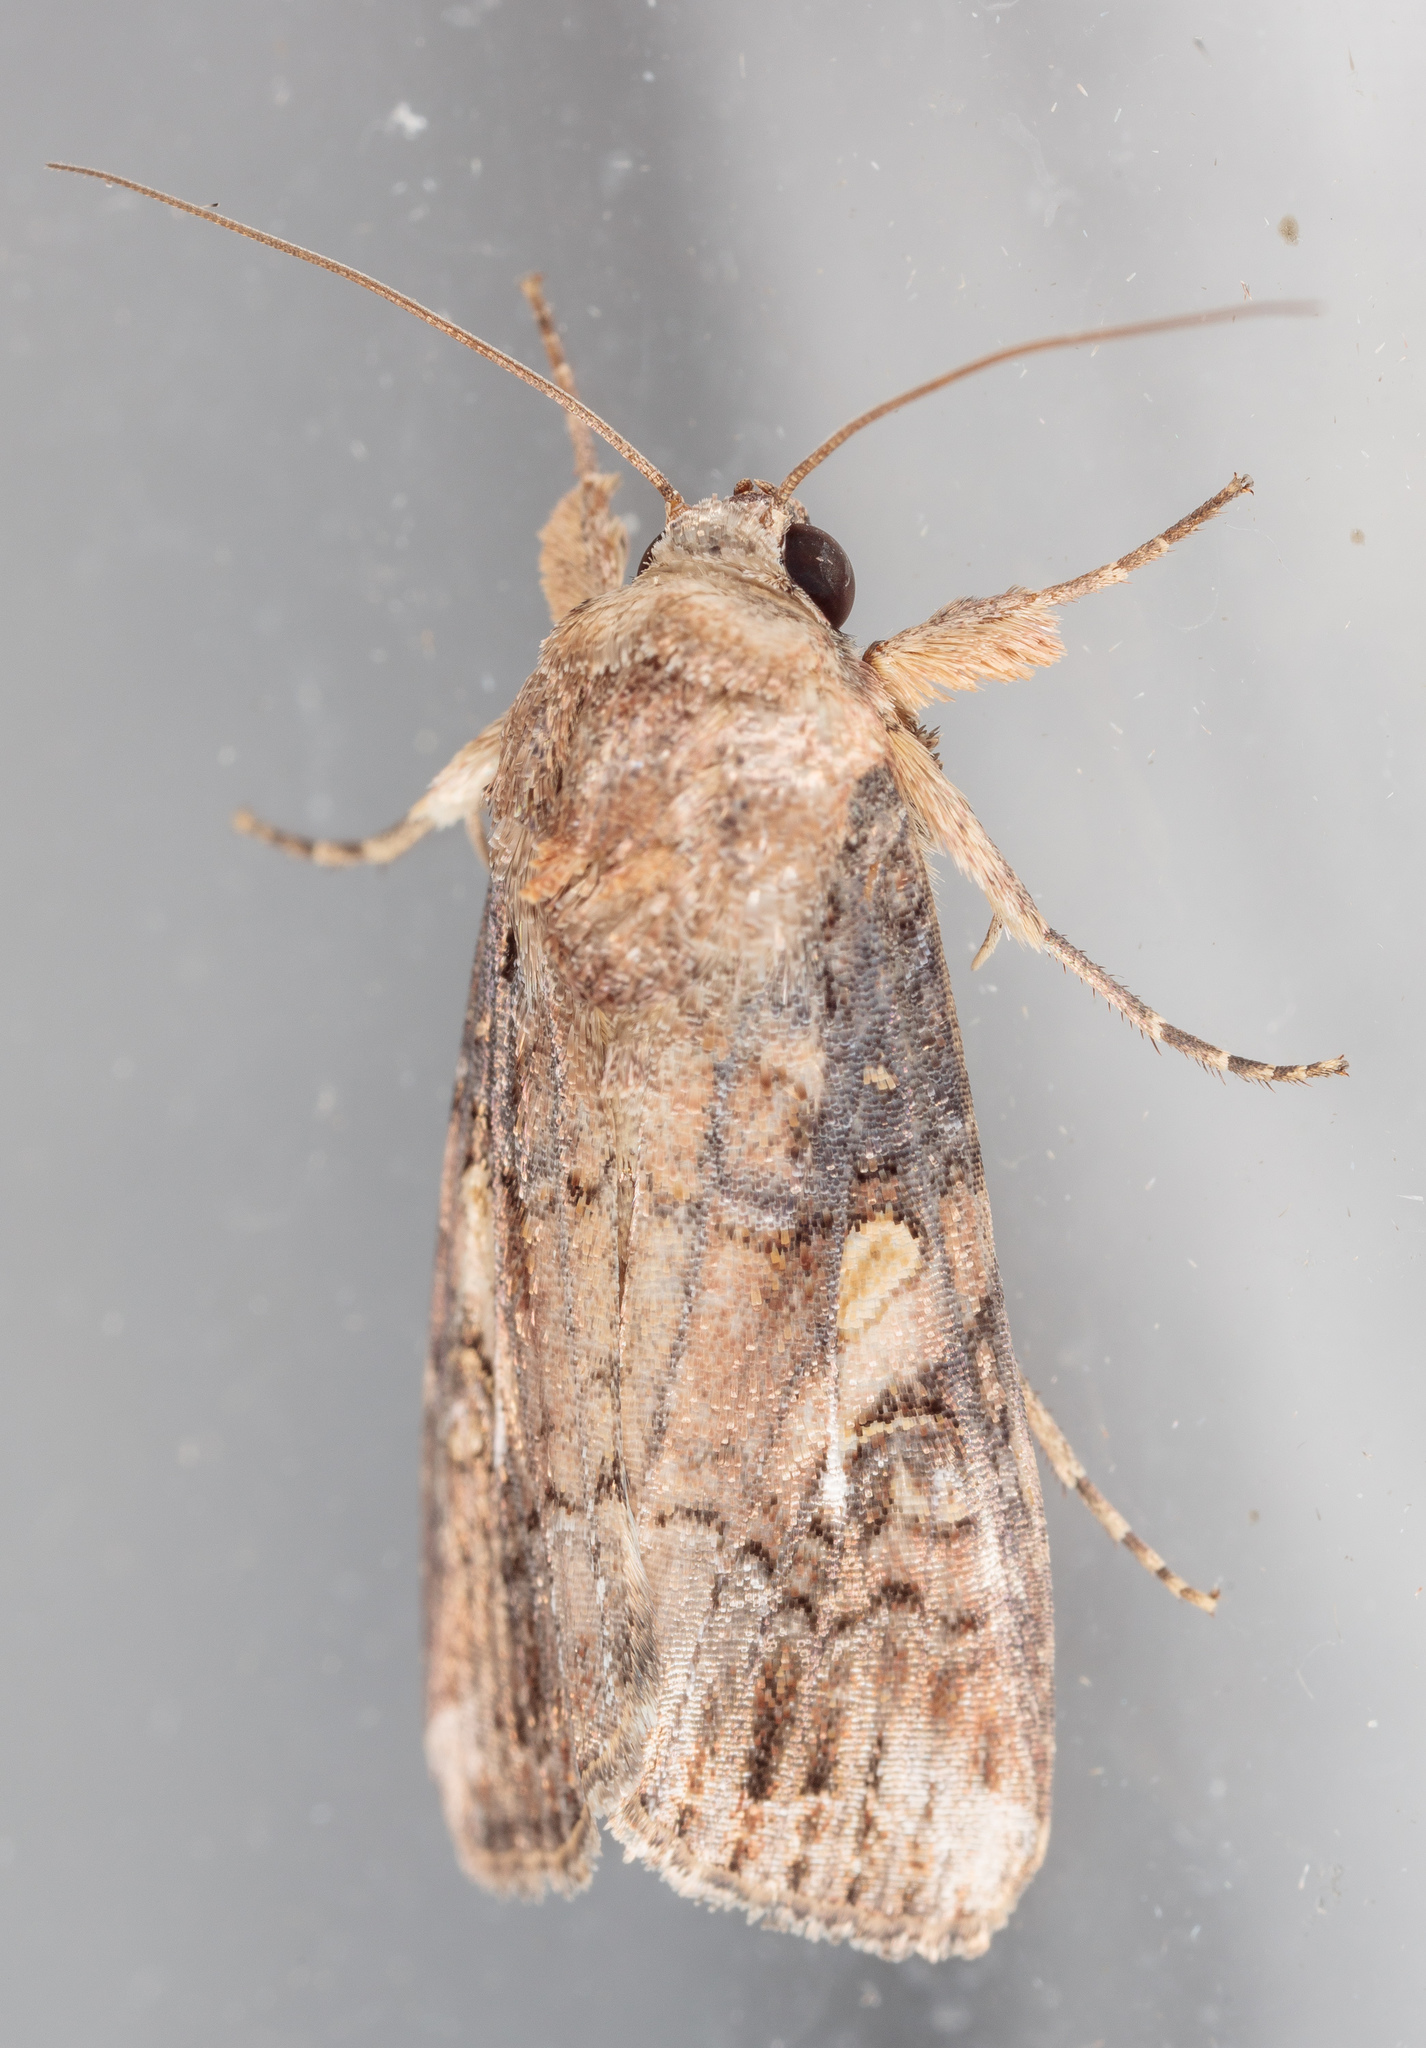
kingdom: Animalia
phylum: Arthropoda
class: Insecta
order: Lepidoptera
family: Noctuidae
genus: Spodoptera
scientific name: Spodoptera frugiperda
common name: Fall armyworm
